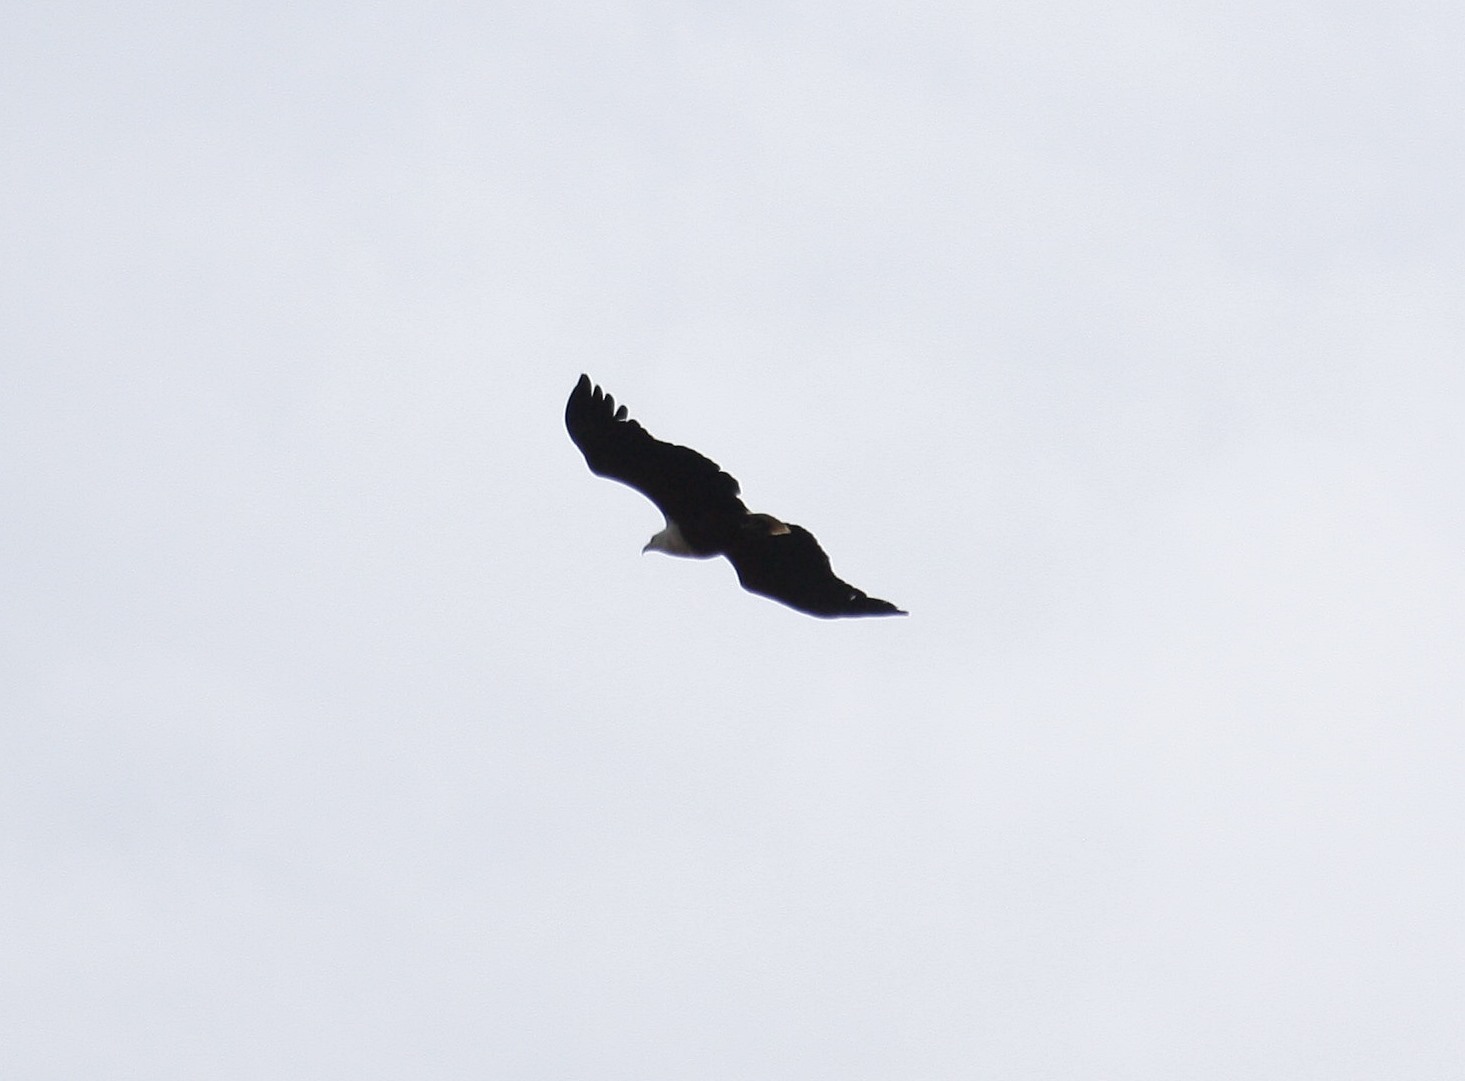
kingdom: Animalia
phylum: Chordata
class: Aves
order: Accipitriformes
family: Accipitridae
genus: Haliaeetus
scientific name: Haliaeetus vocifer
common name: African fish eagle
